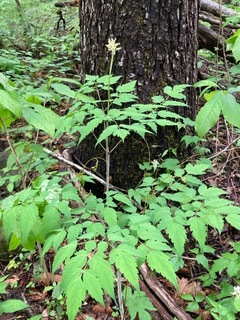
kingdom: Plantae
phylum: Tracheophyta
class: Magnoliopsida
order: Ranunculales
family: Ranunculaceae
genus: Actaea
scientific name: Actaea pachypoda
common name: Doll's-eyes
